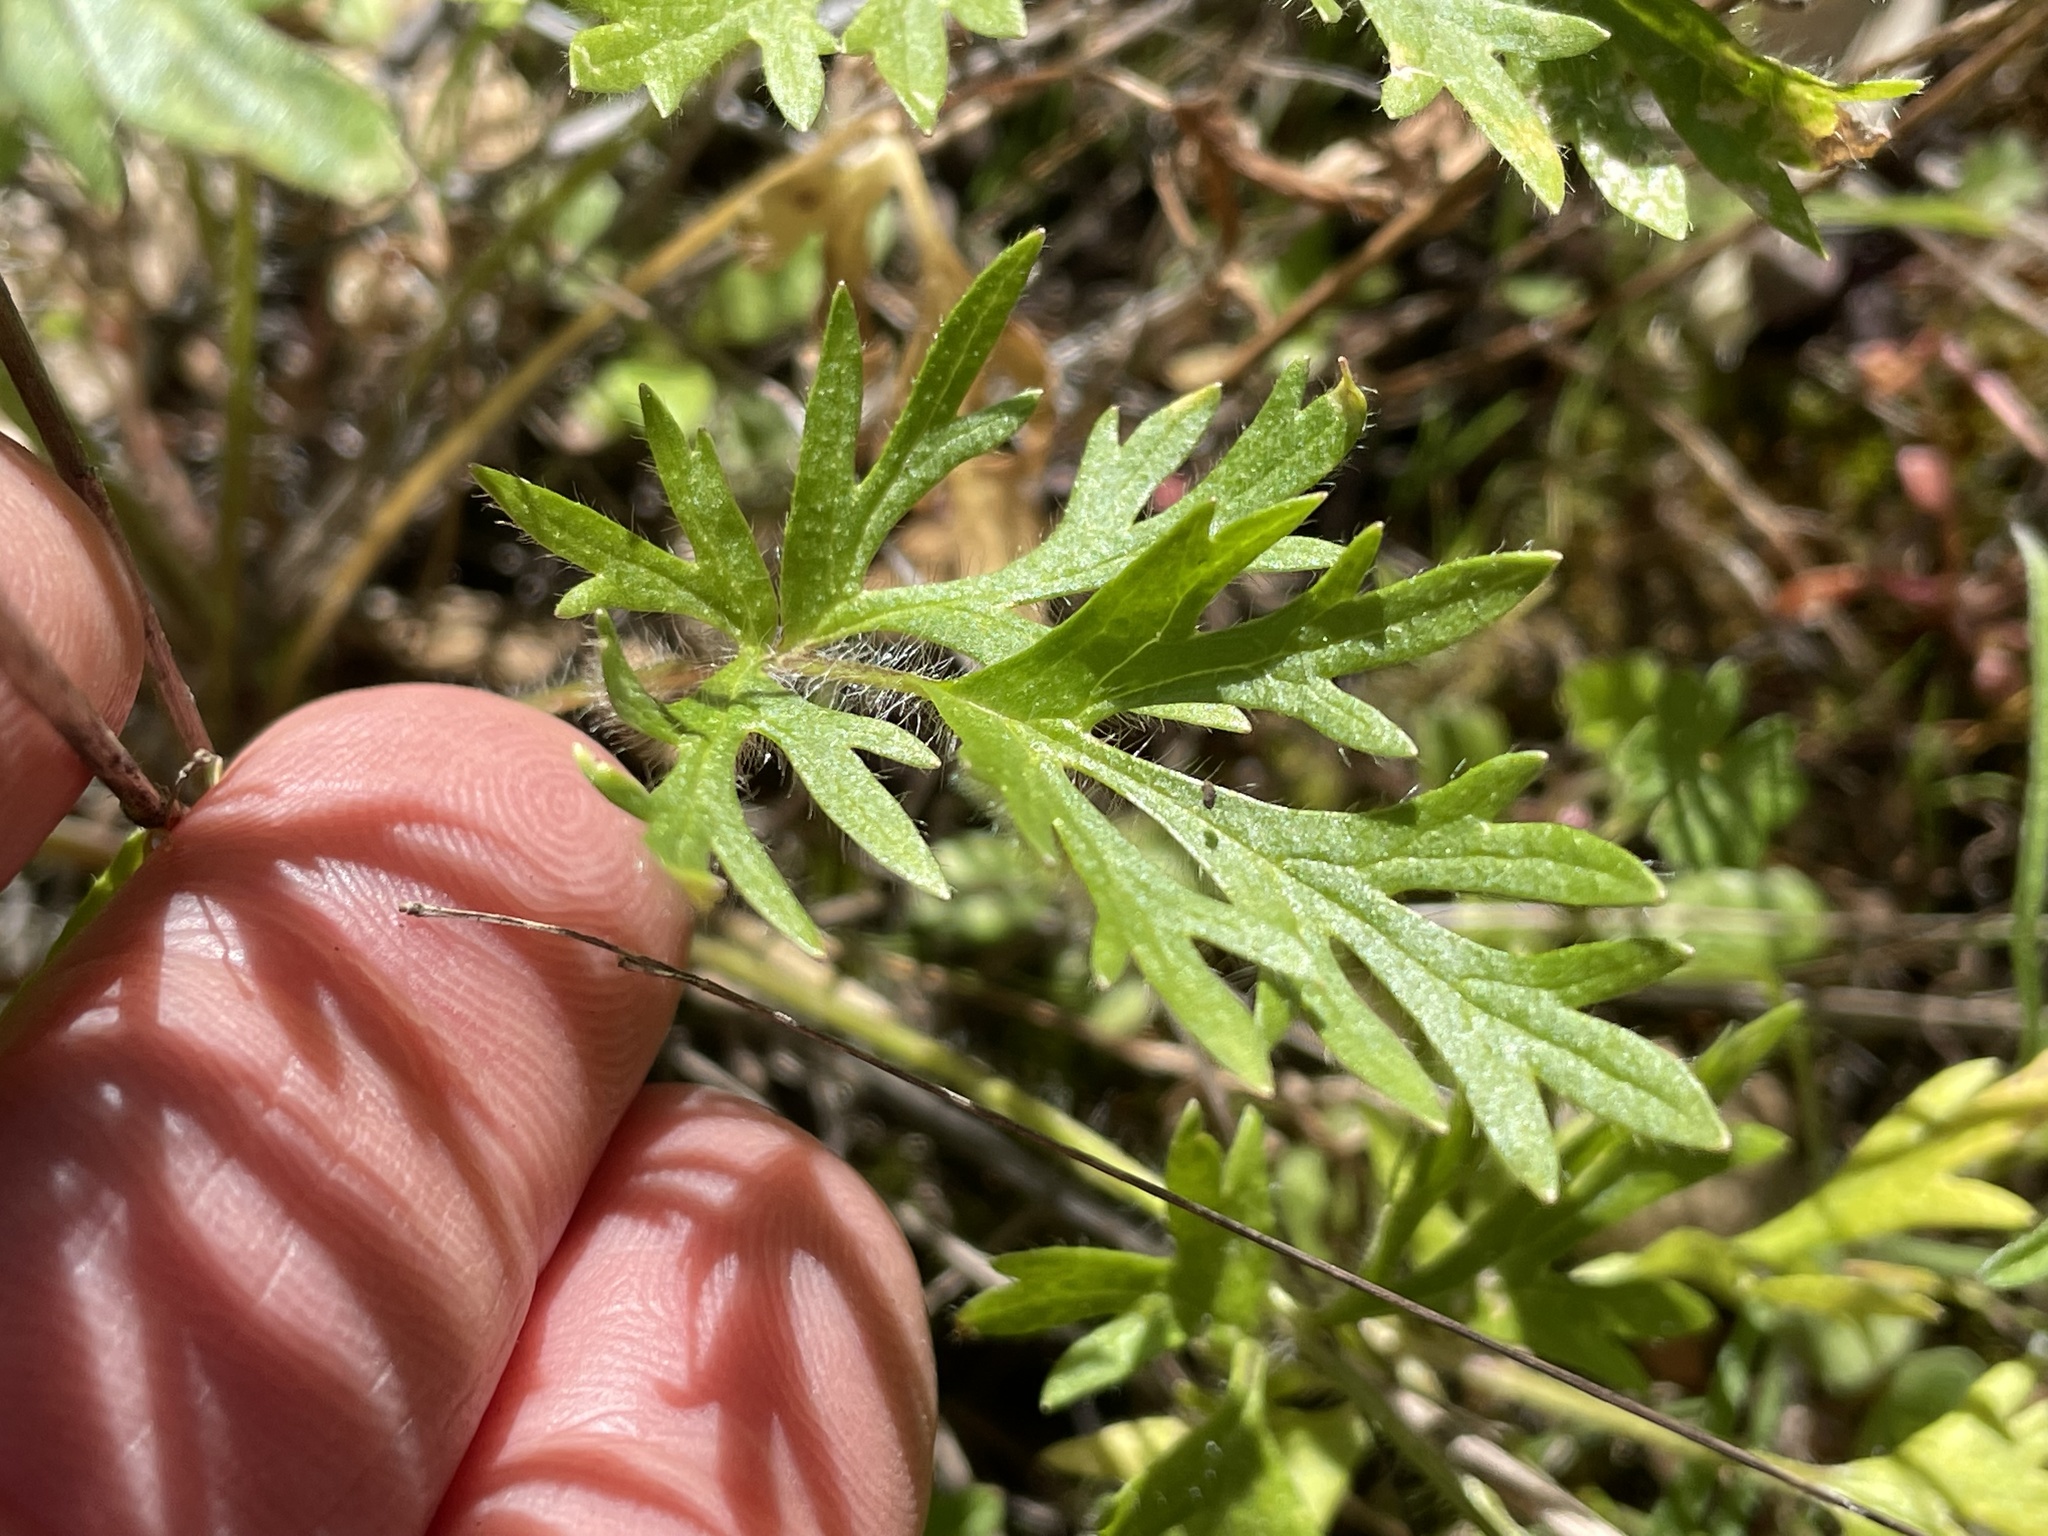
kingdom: Plantae
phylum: Tracheophyta
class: Magnoliopsida
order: Ranunculales
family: Ranunculaceae
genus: Ranunculus
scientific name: Ranunculus californicus
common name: California buttercup
